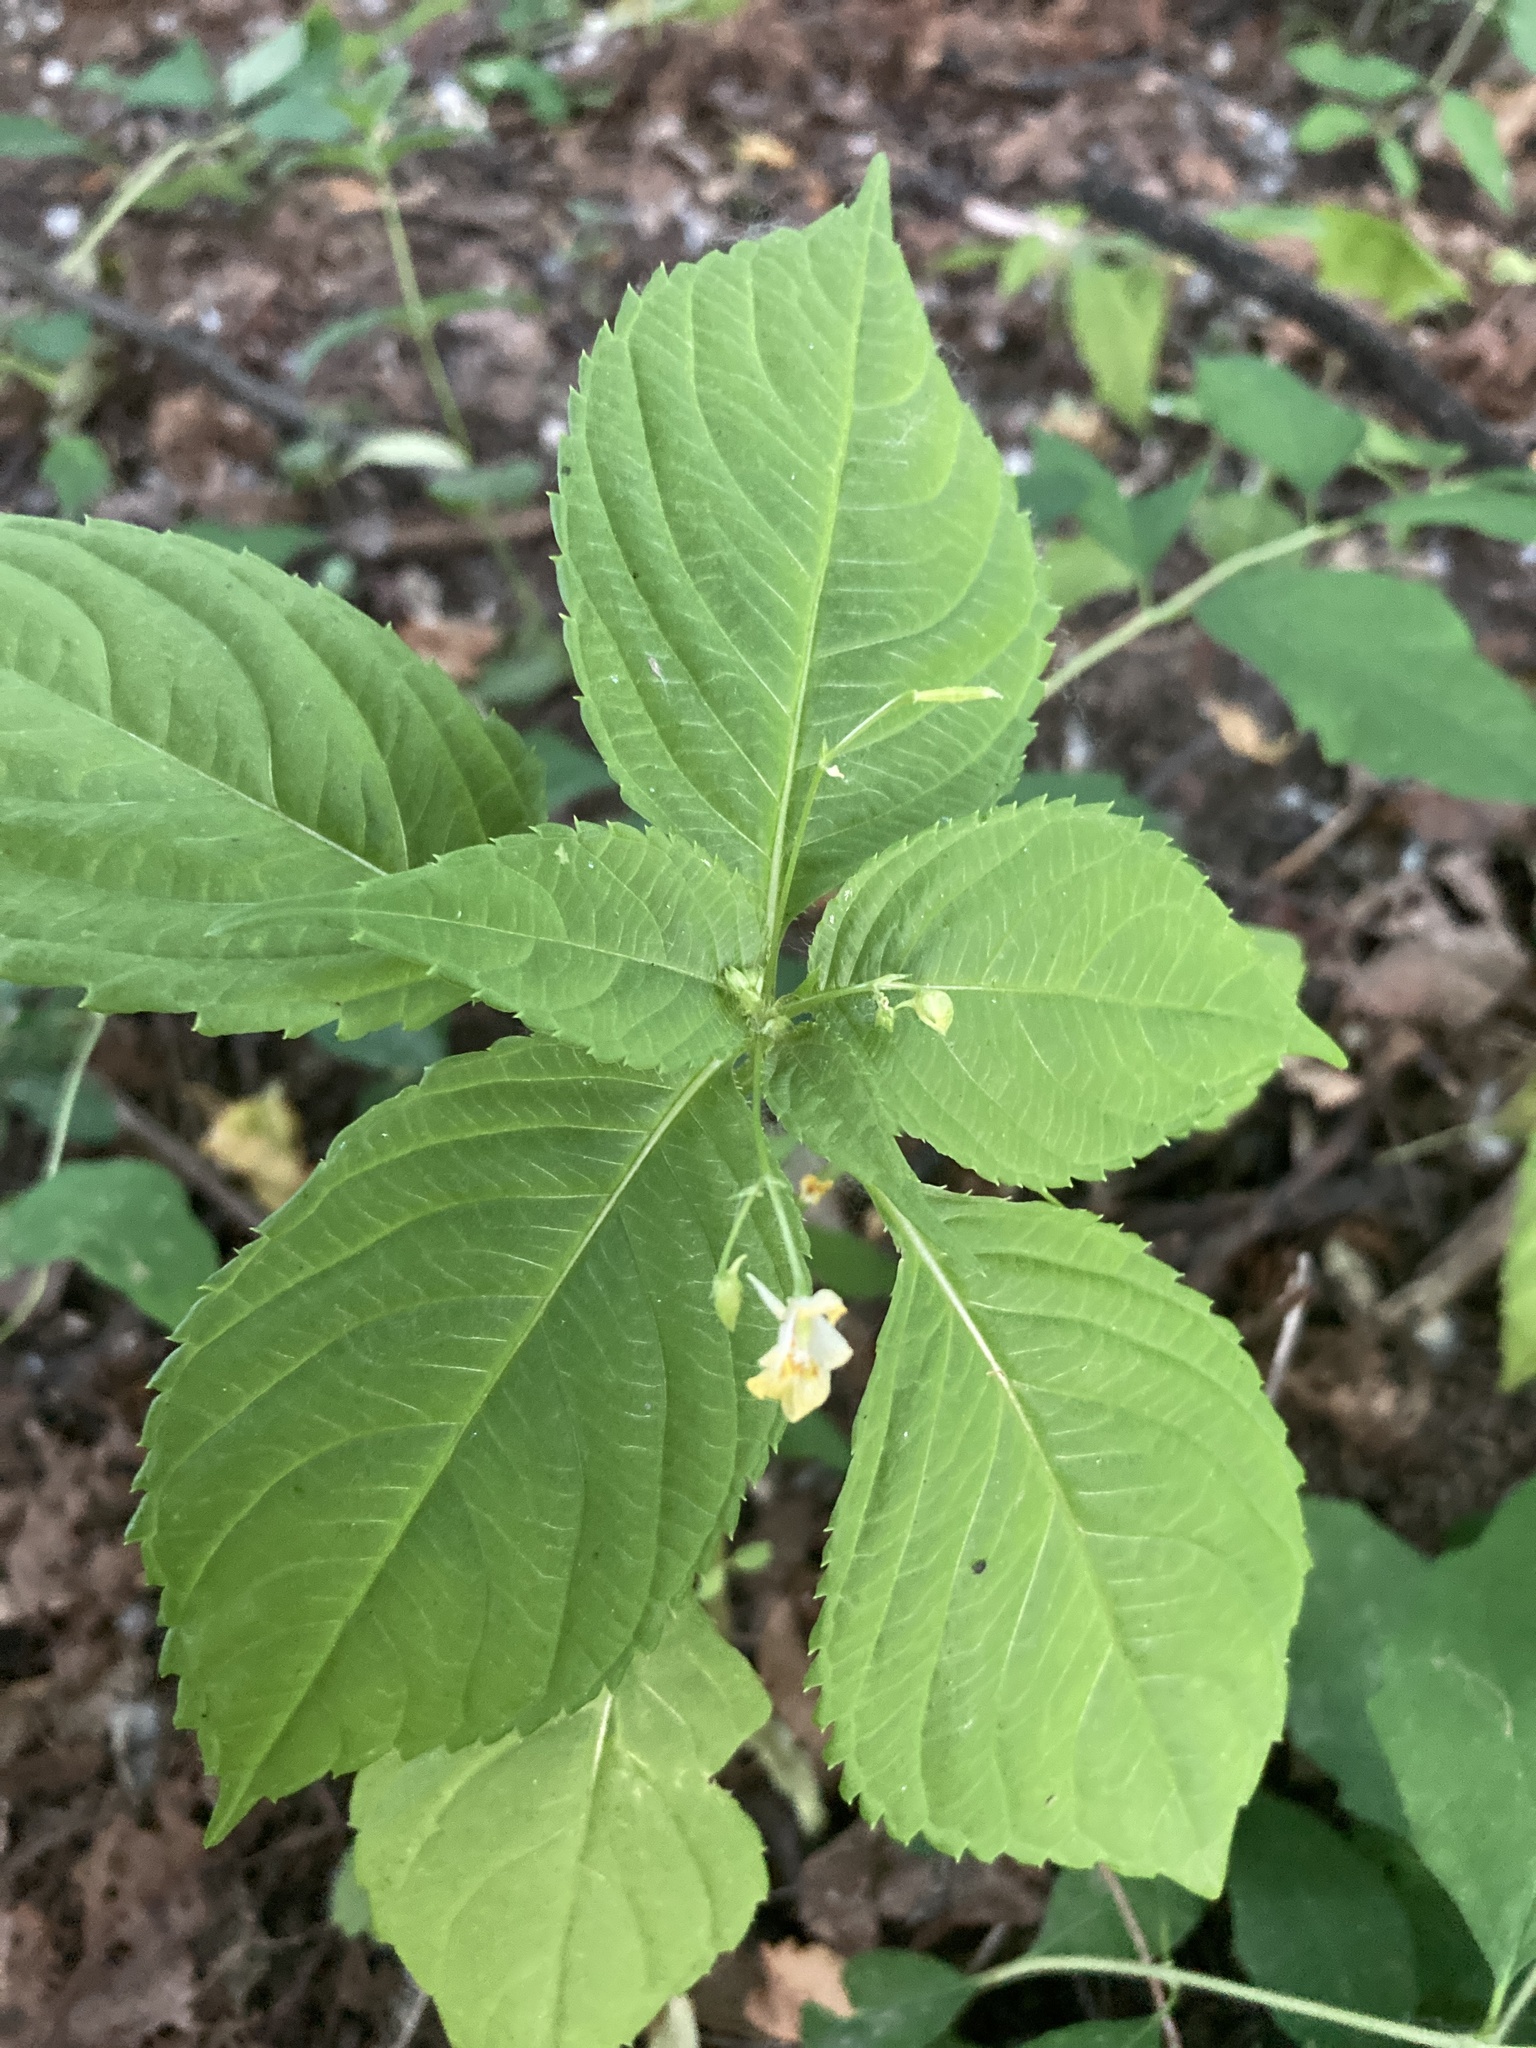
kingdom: Plantae
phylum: Tracheophyta
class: Magnoliopsida
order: Ericales
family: Balsaminaceae
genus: Impatiens
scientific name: Impatiens parviflora
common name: Small balsam
